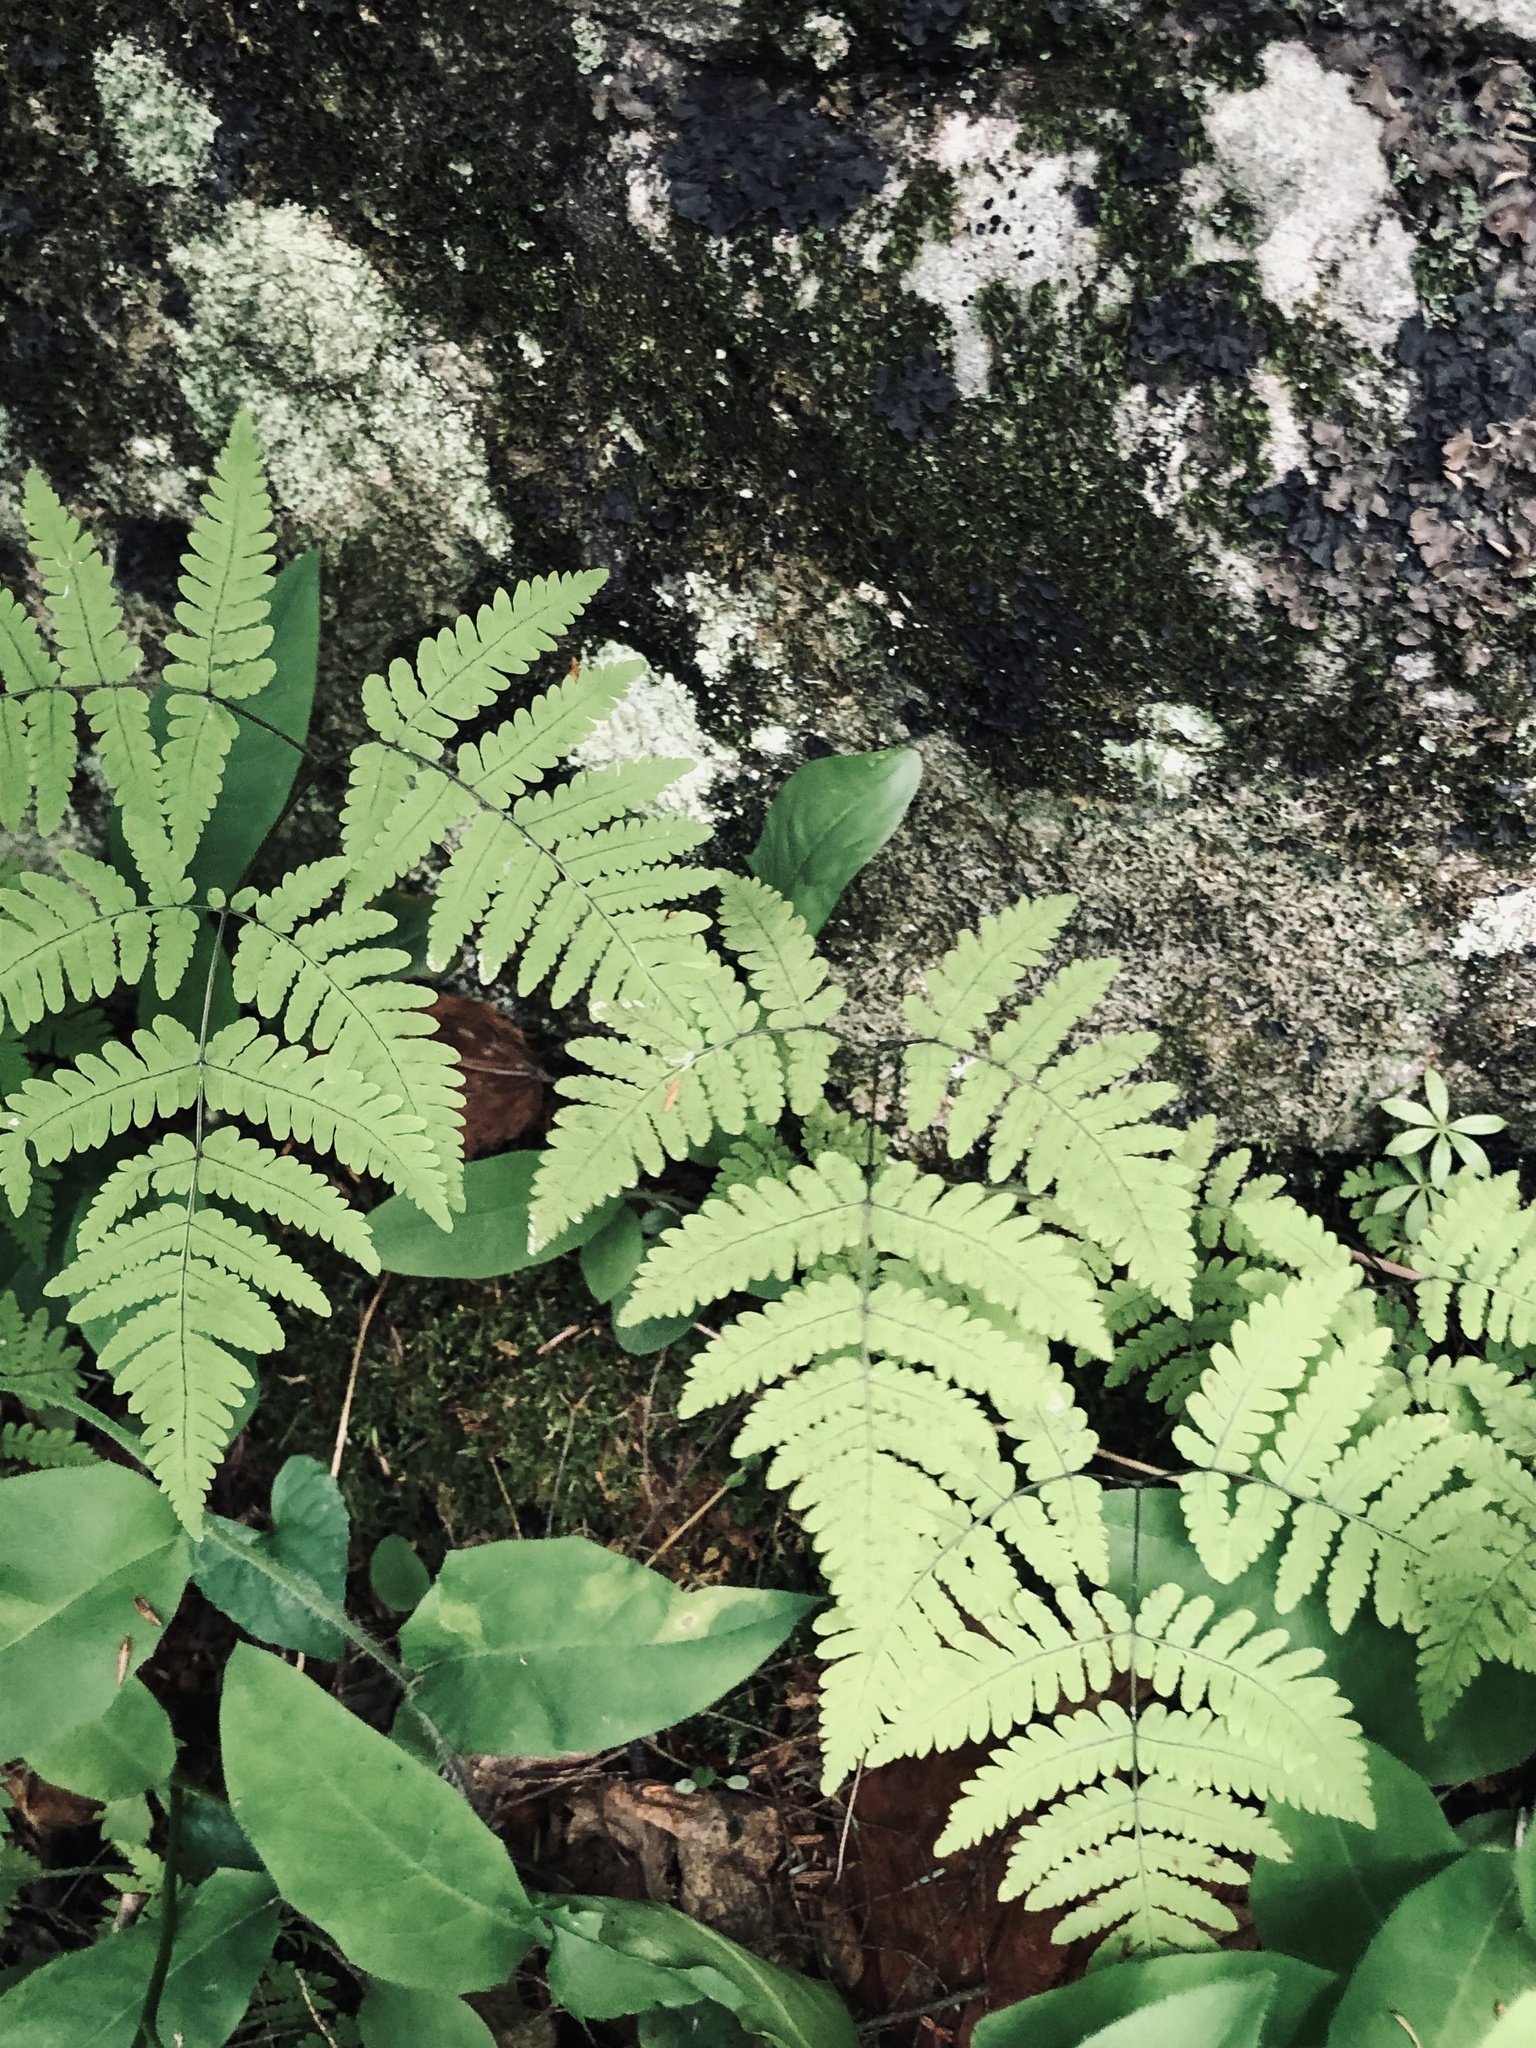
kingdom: Plantae
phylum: Tracheophyta
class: Polypodiopsida
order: Polypodiales
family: Cystopteridaceae
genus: Gymnocarpium
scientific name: Gymnocarpium dryopteris
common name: Oak fern
